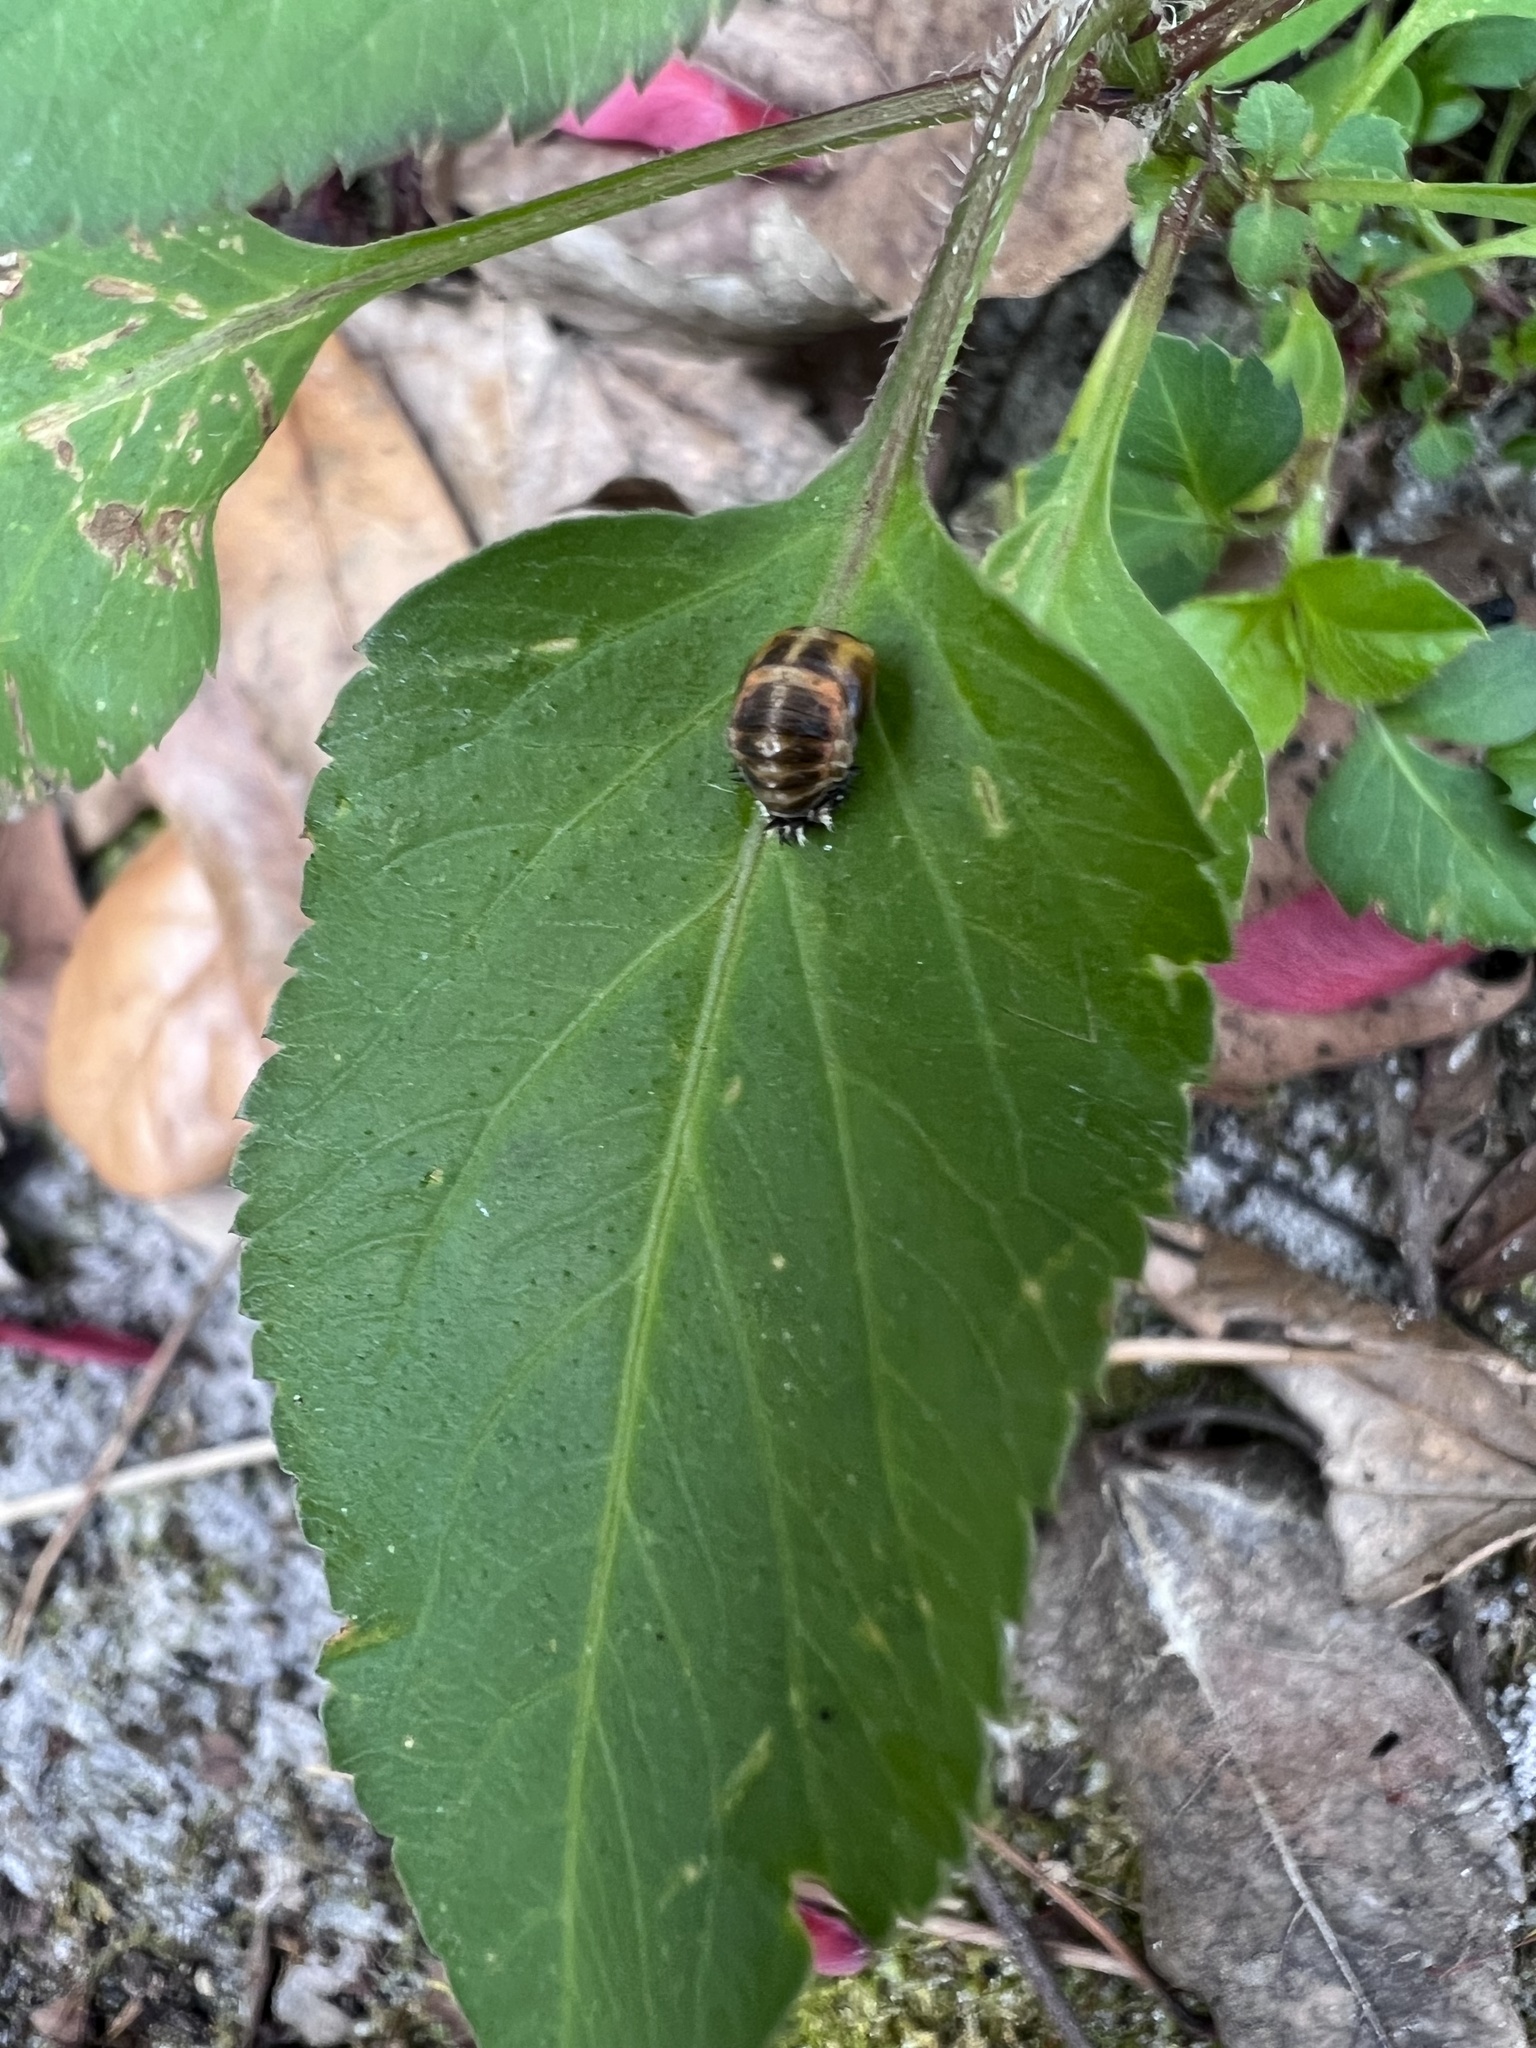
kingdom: Animalia
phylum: Arthropoda
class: Insecta
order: Coleoptera
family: Coccinellidae
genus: Harmonia
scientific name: Harmonia axyridis
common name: Harlequin ladybird
